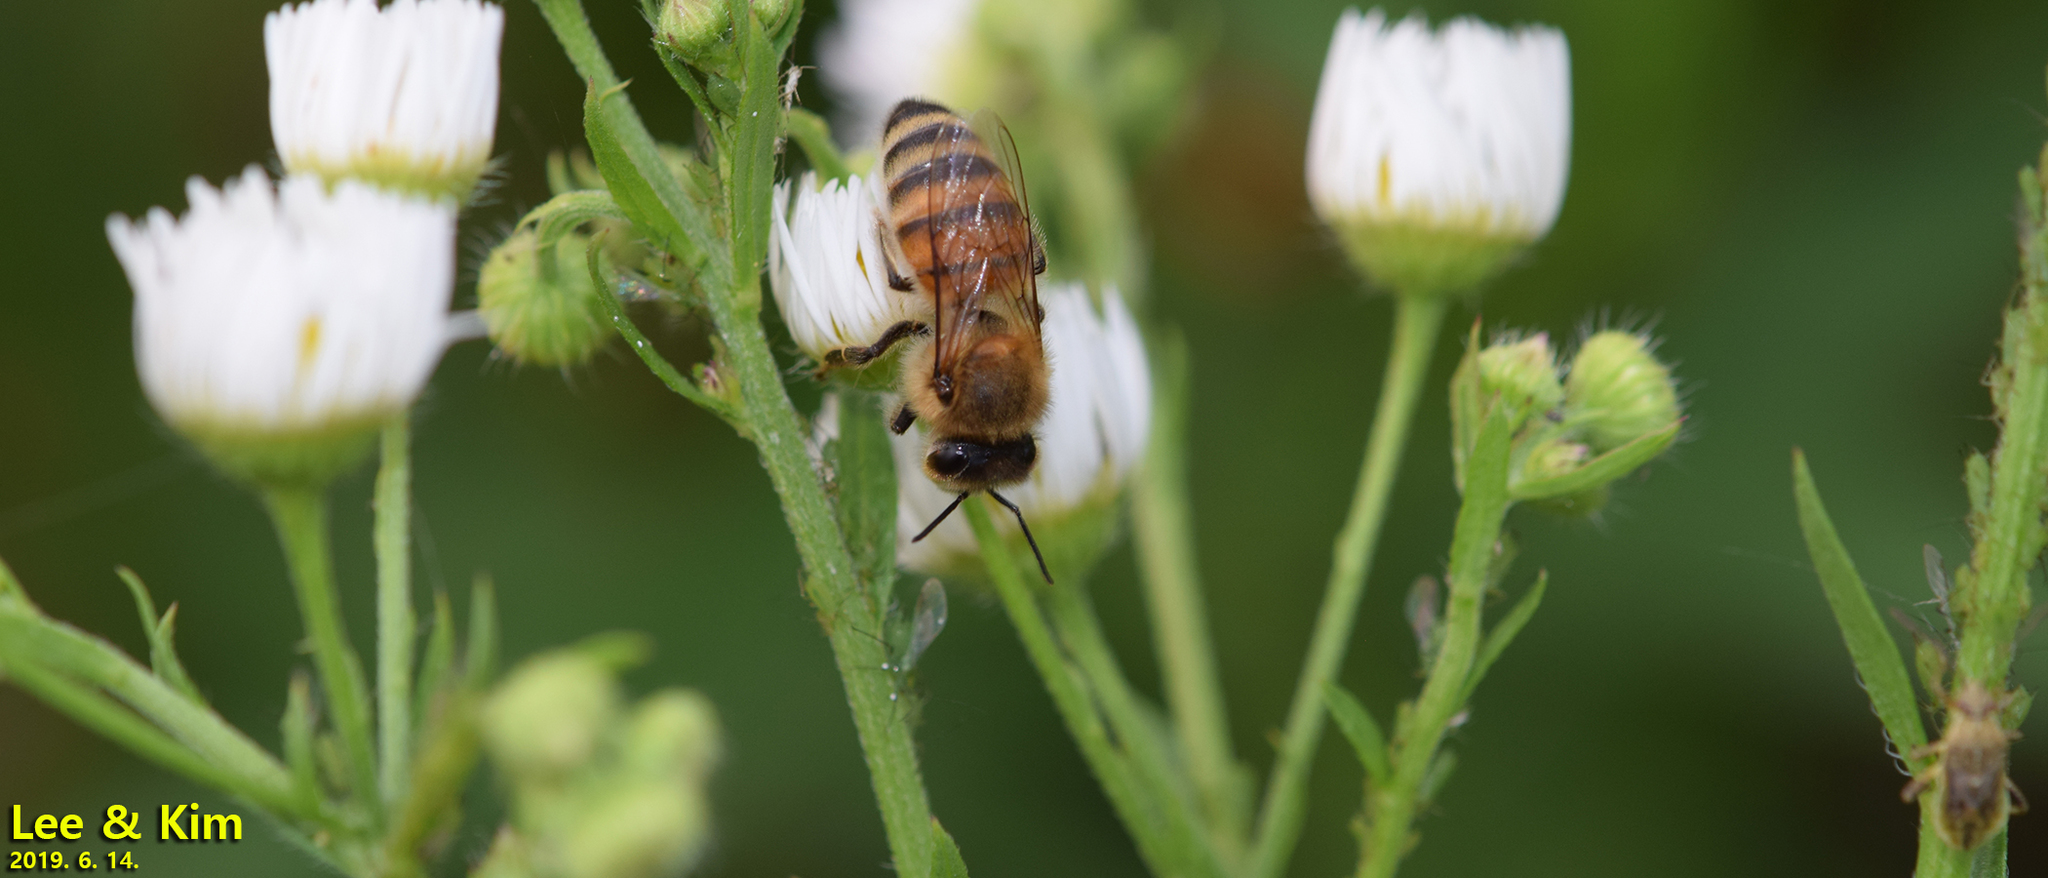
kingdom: Animalia
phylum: Arthropoda
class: Insecta
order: Hymenoptera
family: Apidae
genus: Apis
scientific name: Apis mellifera
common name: Honey bee
